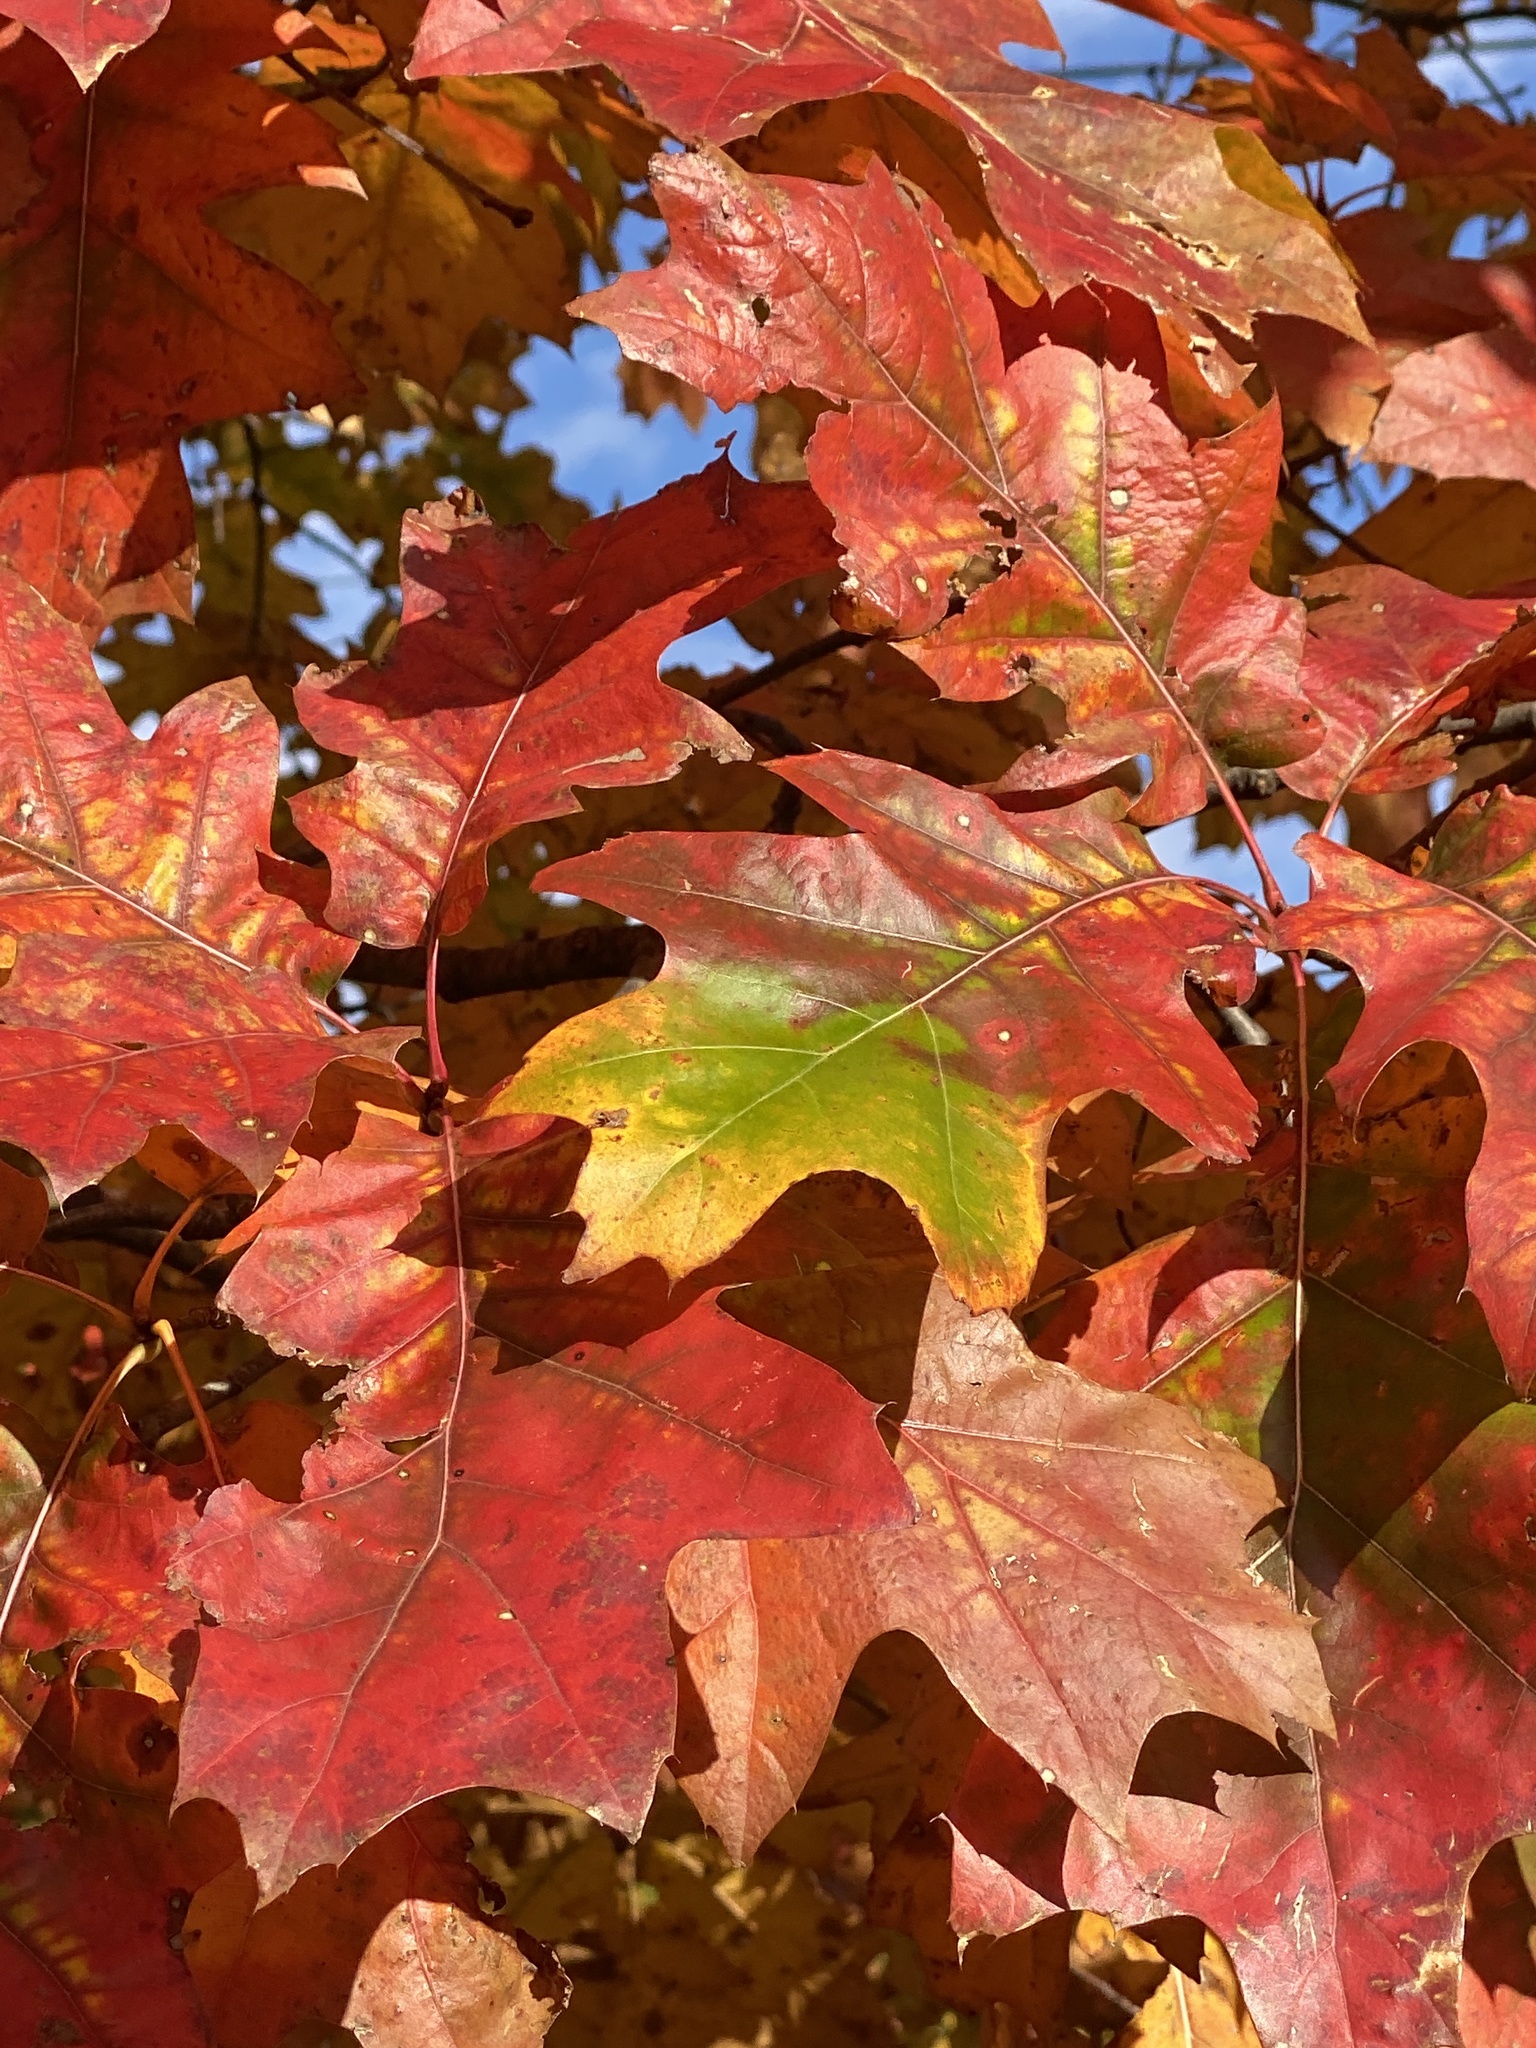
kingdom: Plantae
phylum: Tracheophyta
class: Magnoliopsida
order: Fagales
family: Fagaceae
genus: Quercus
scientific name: Quercus rubra
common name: Red oak
